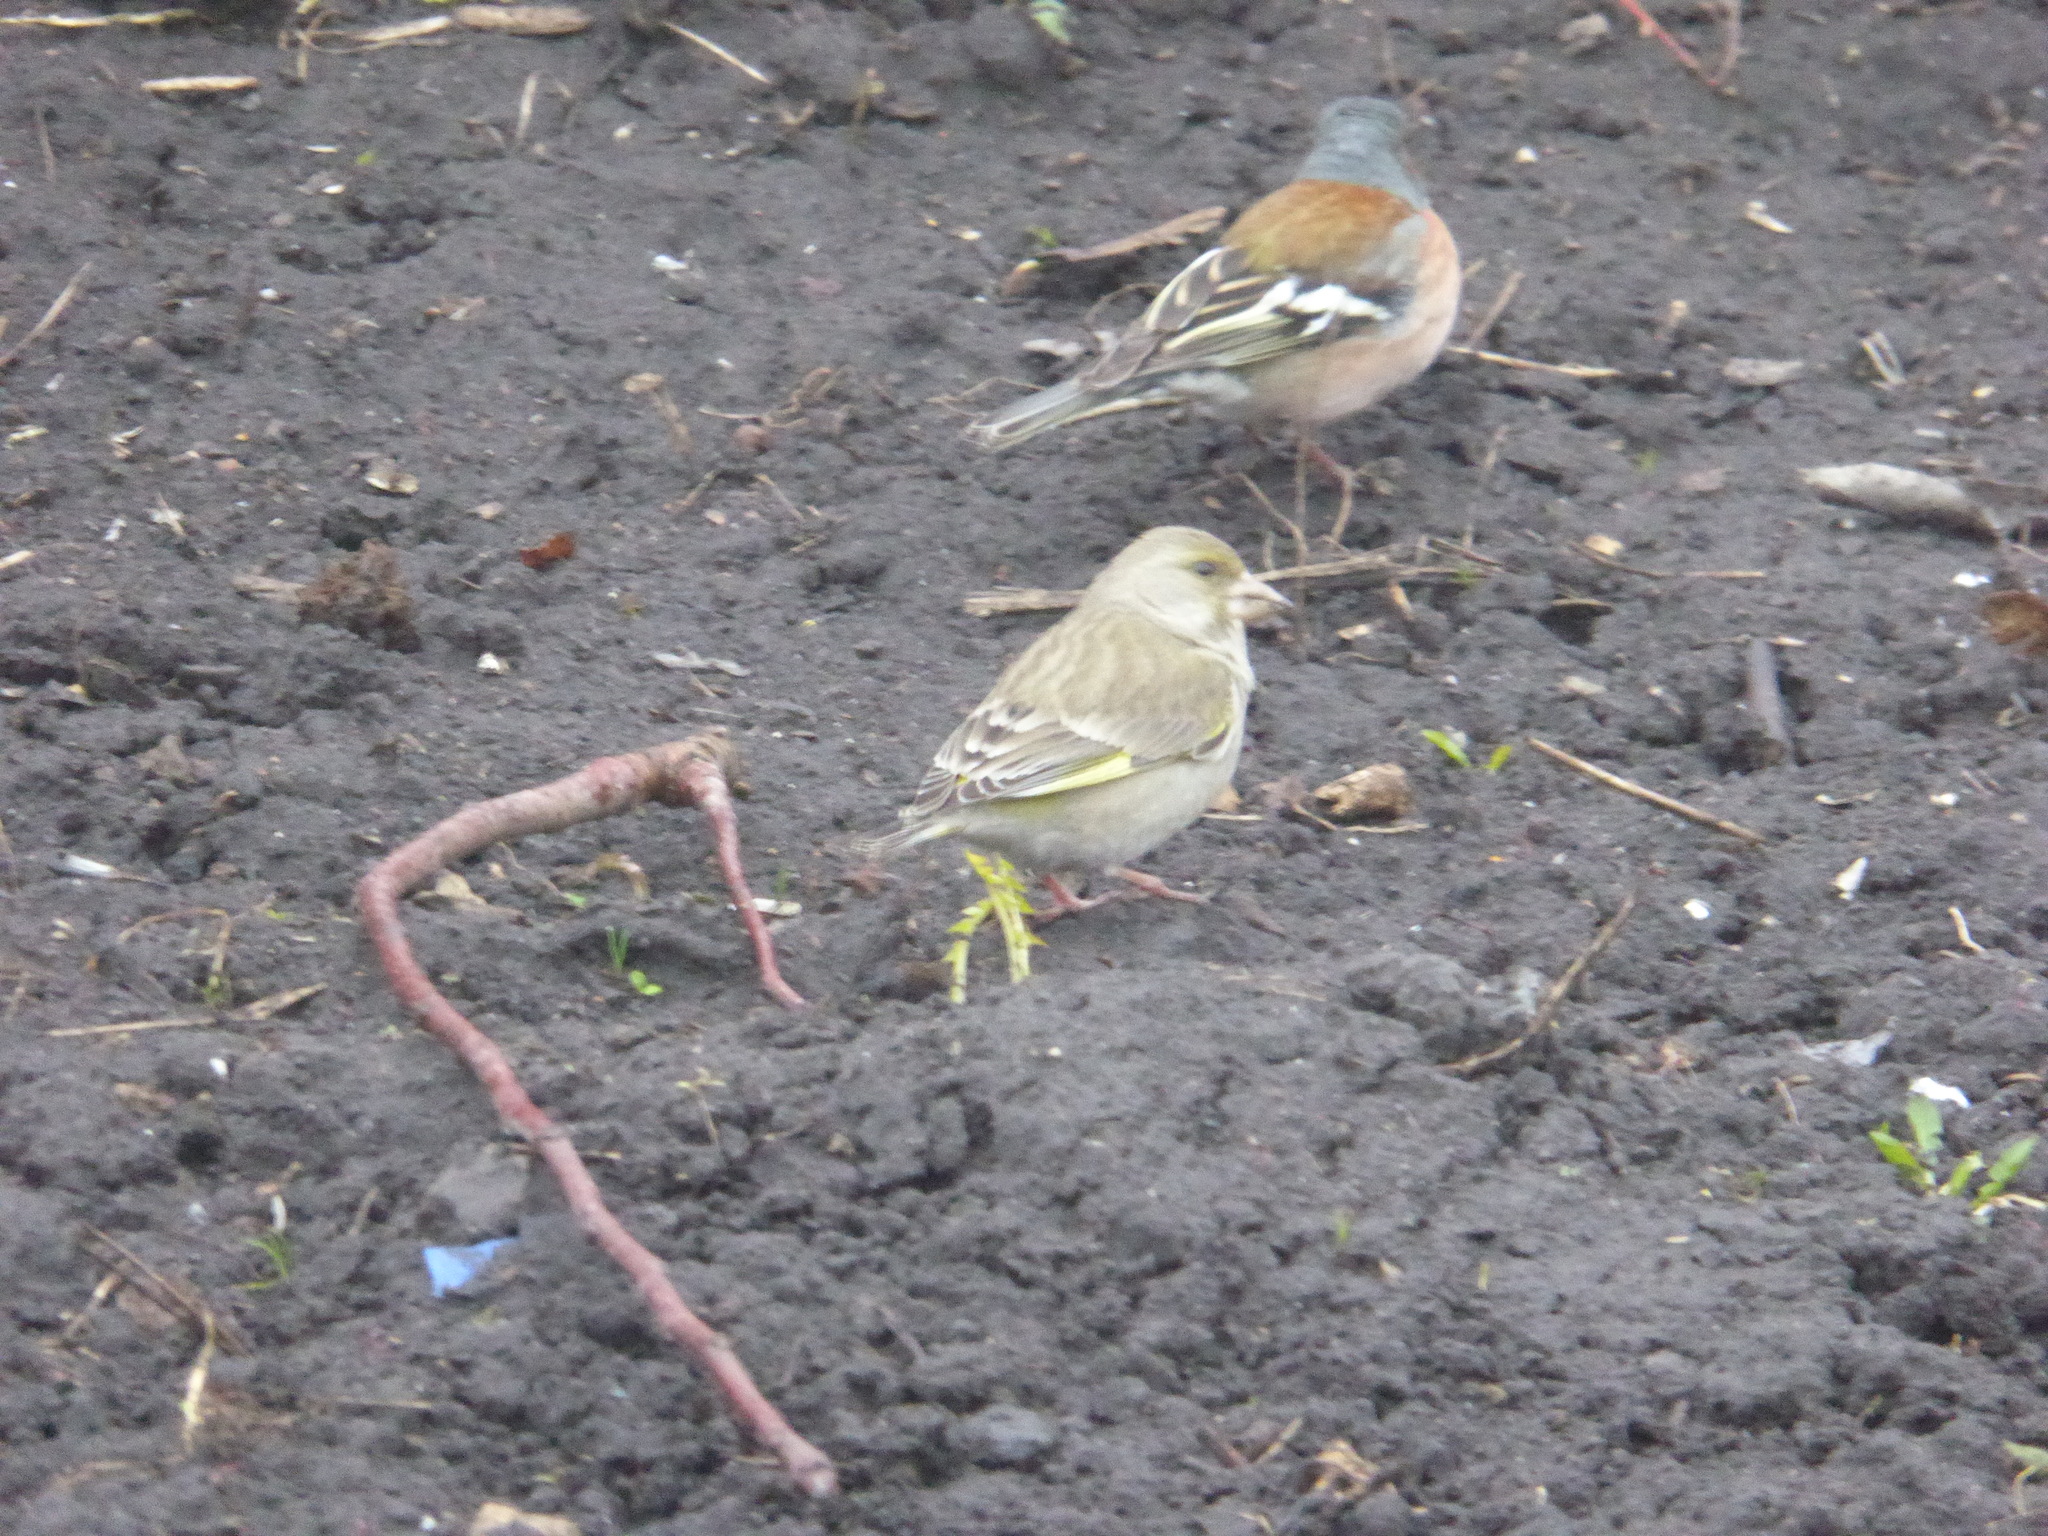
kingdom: Plantae
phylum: Tracheophyta
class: Liliopsida
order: Poales
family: Poaceae
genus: Chloris
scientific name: Chloris chloris
